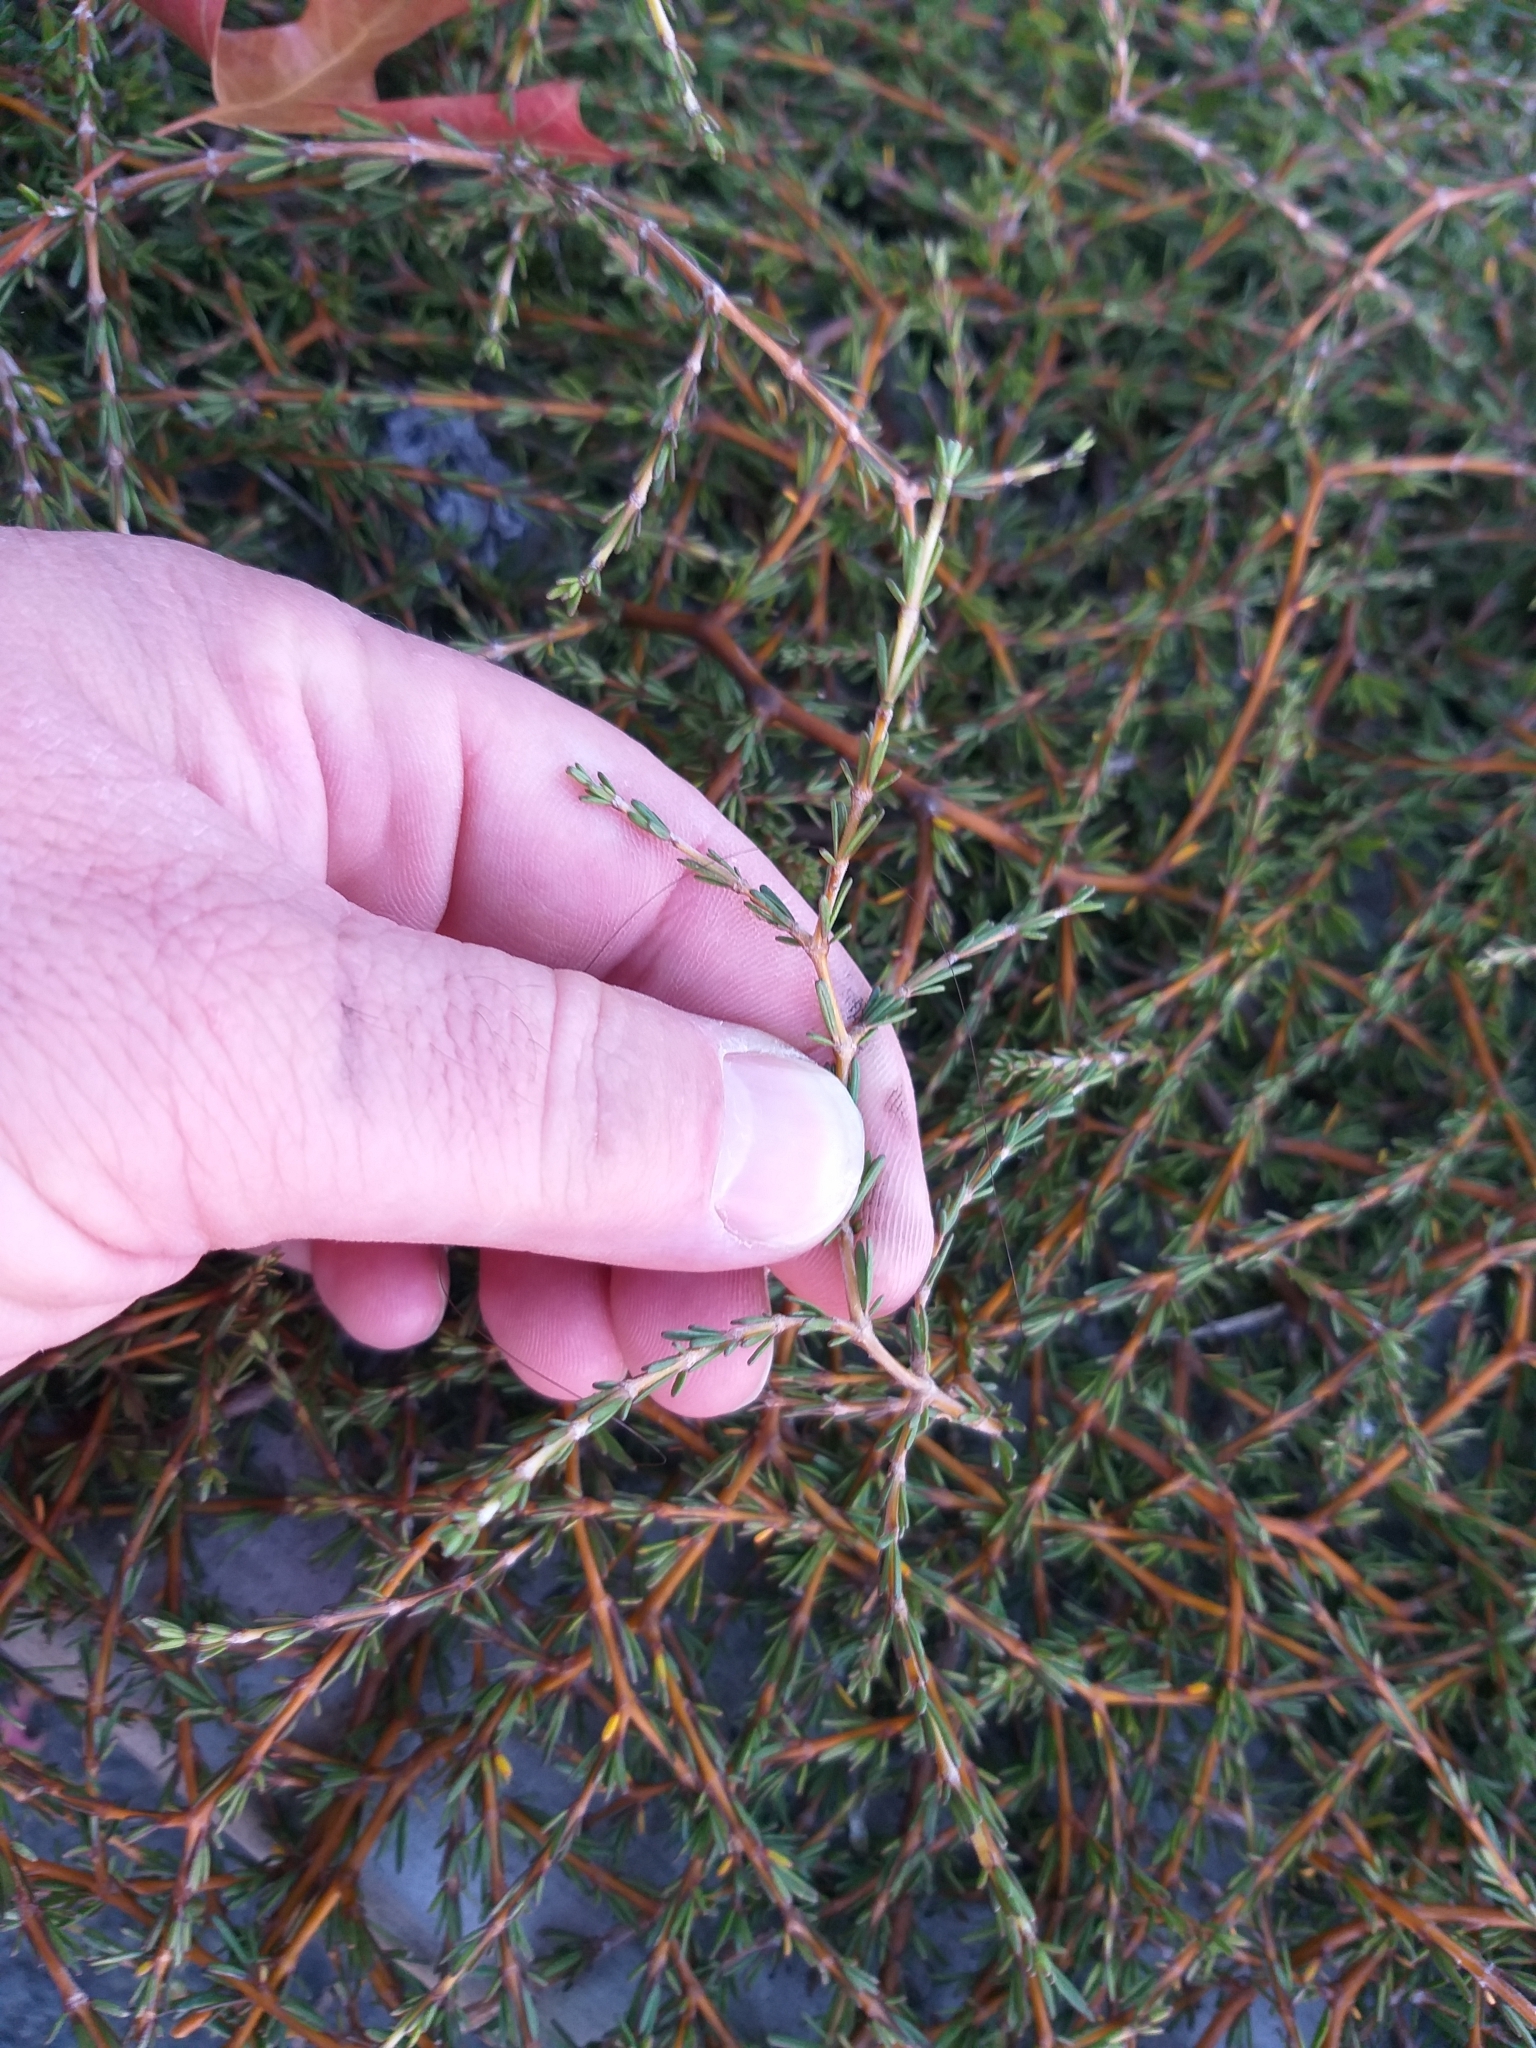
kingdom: Plantae
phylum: Tracheophyta
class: Magnoliopsida
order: Gentianales
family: Rubiaceae
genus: Coprosma
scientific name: Coprosma acerosa
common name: Sand coprosma
